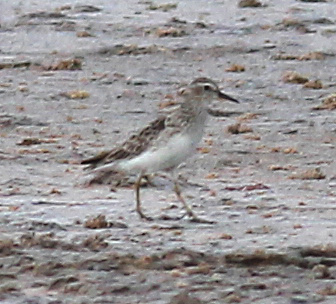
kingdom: Animalia
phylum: Chordata
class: Aves
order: Charadriiformes
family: Scolopacidae
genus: Calidris
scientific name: Calidris subminuta
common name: Long-toed stint
